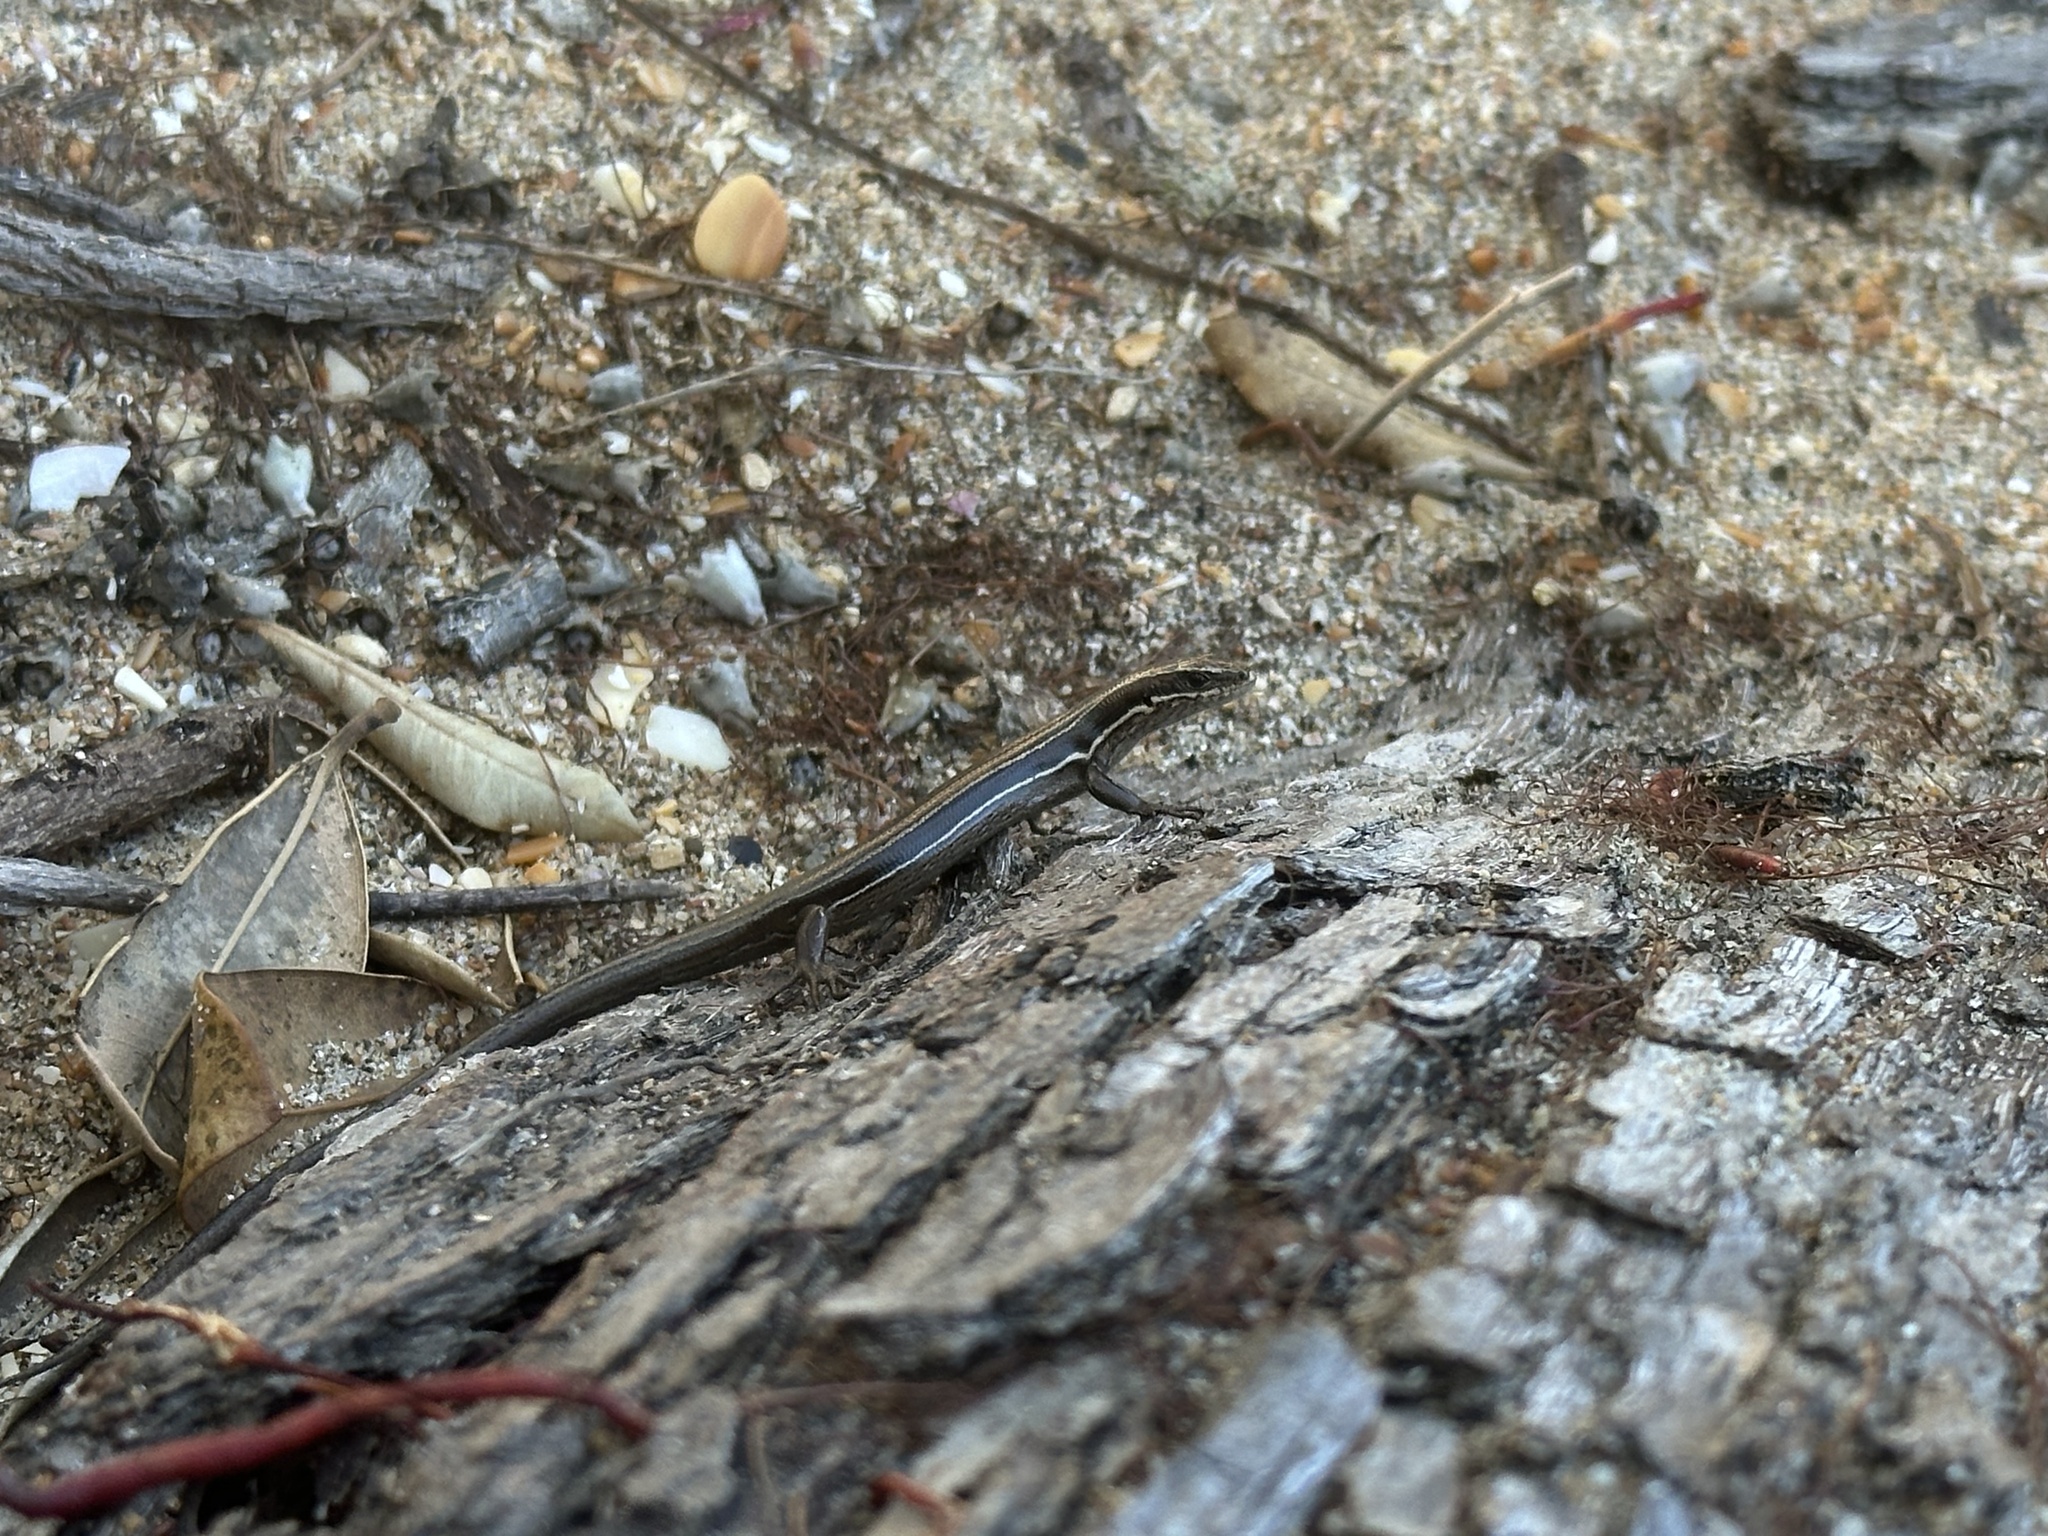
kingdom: Animalia
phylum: Chordata
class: Squamata
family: Scincidae
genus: Oligosoma
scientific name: Oligosoma moco
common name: Moco skink
